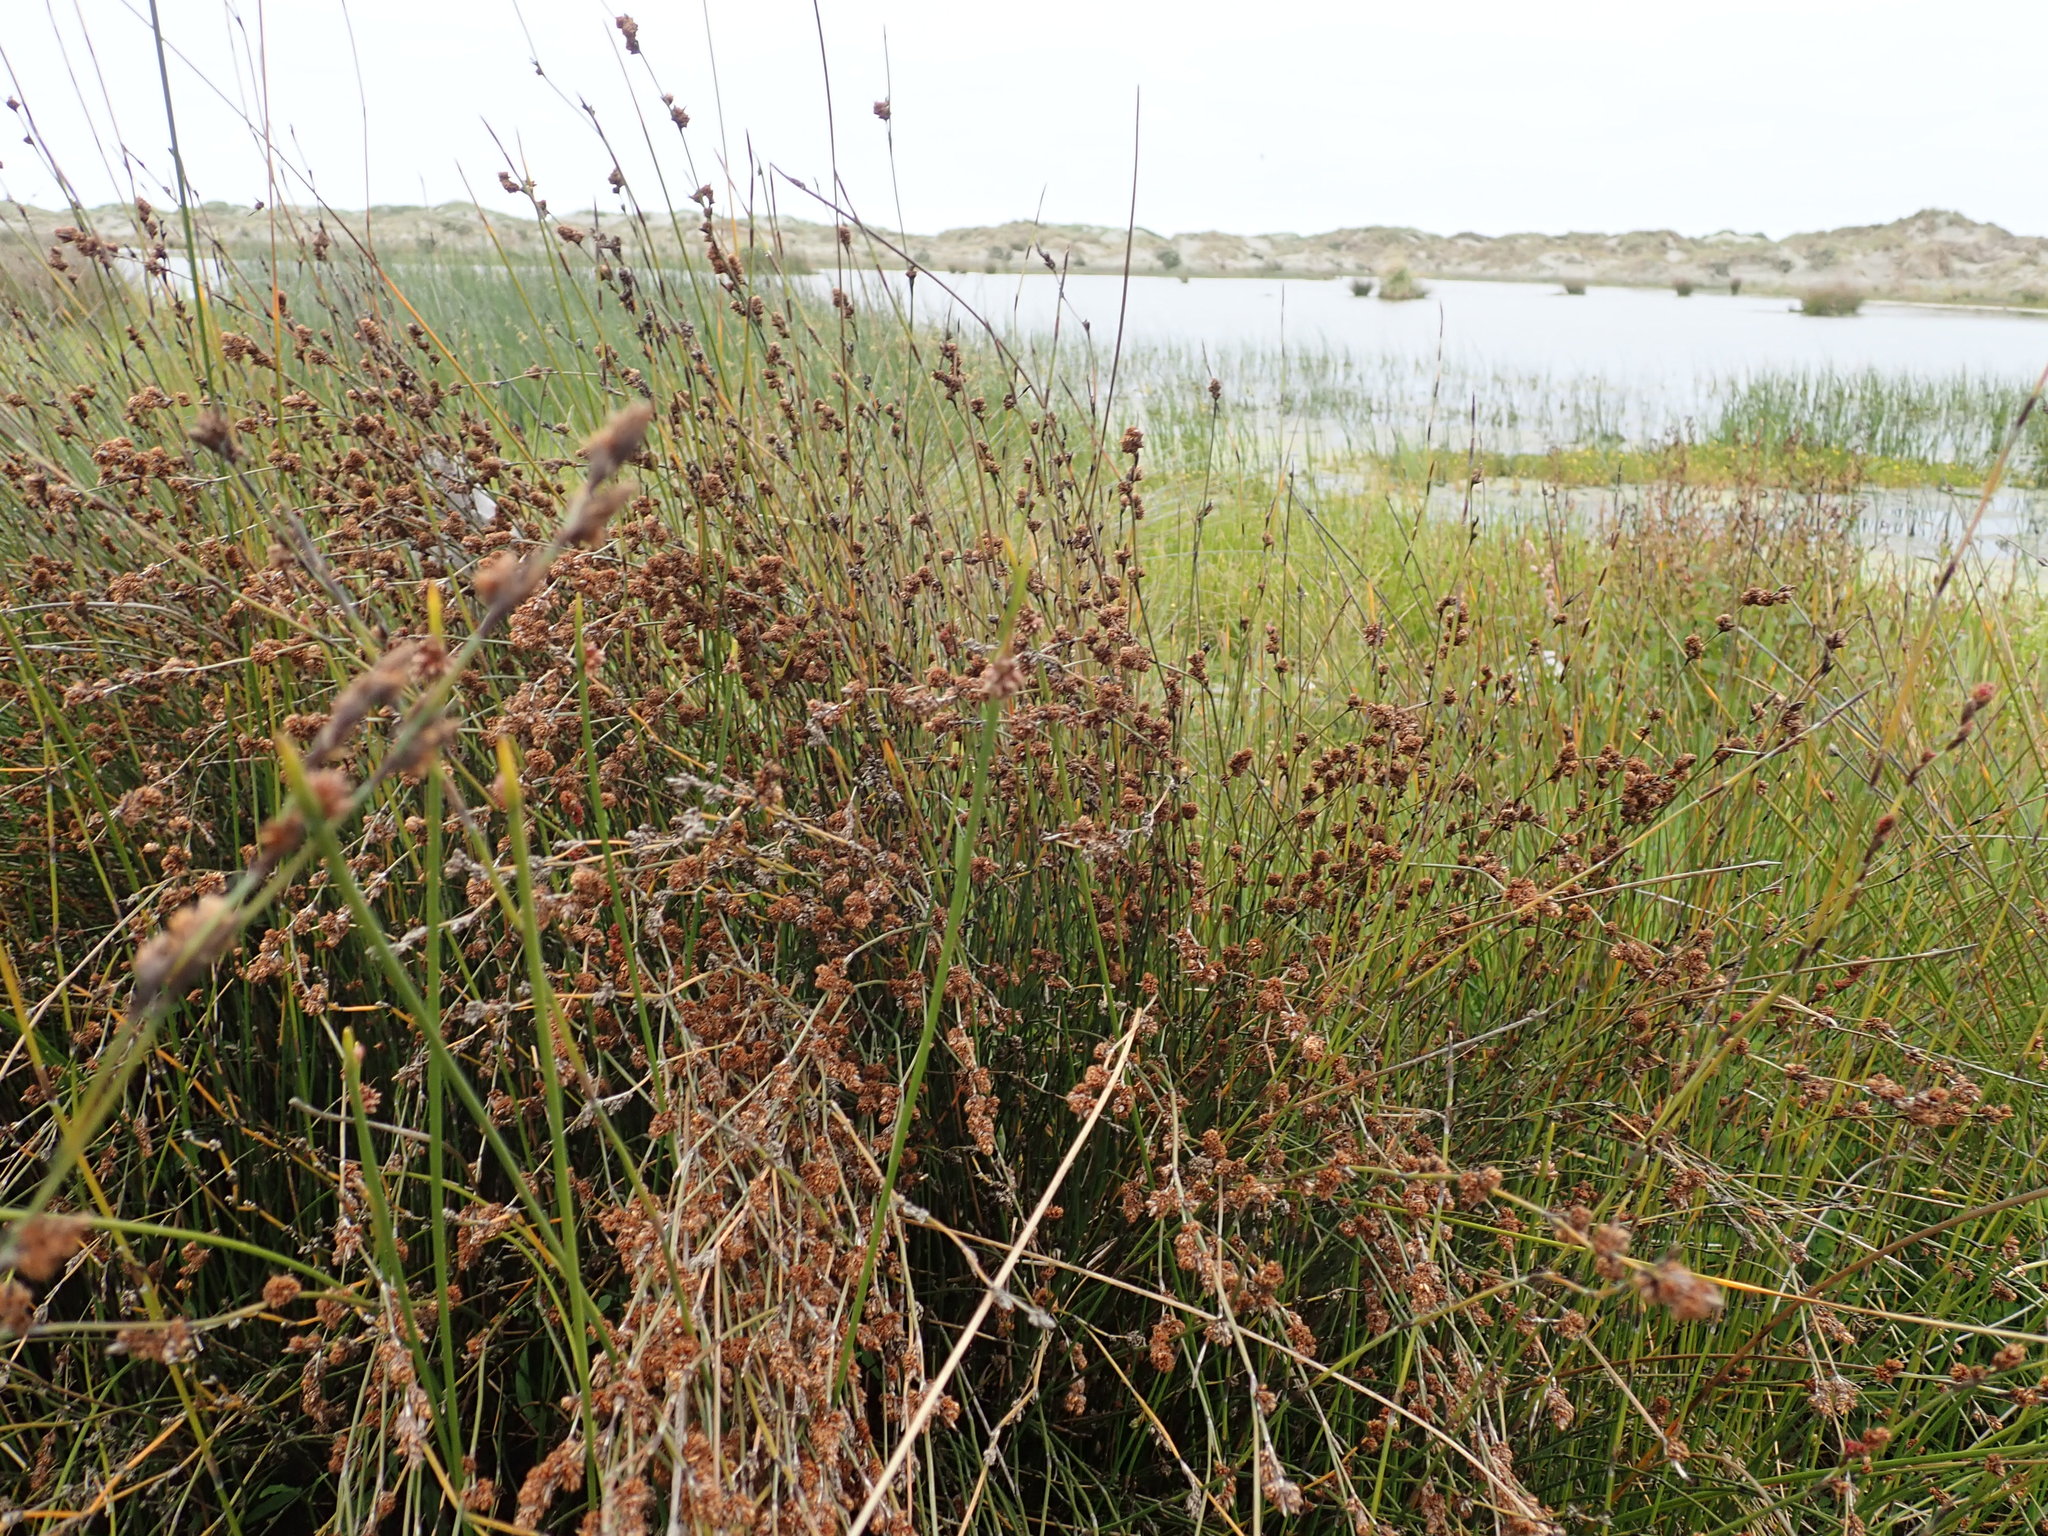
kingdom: Plantae
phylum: Tracheophyta
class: Liliopsida
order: Poales
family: Restionaceae
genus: Apodasmia
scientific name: Apodasmia similis
